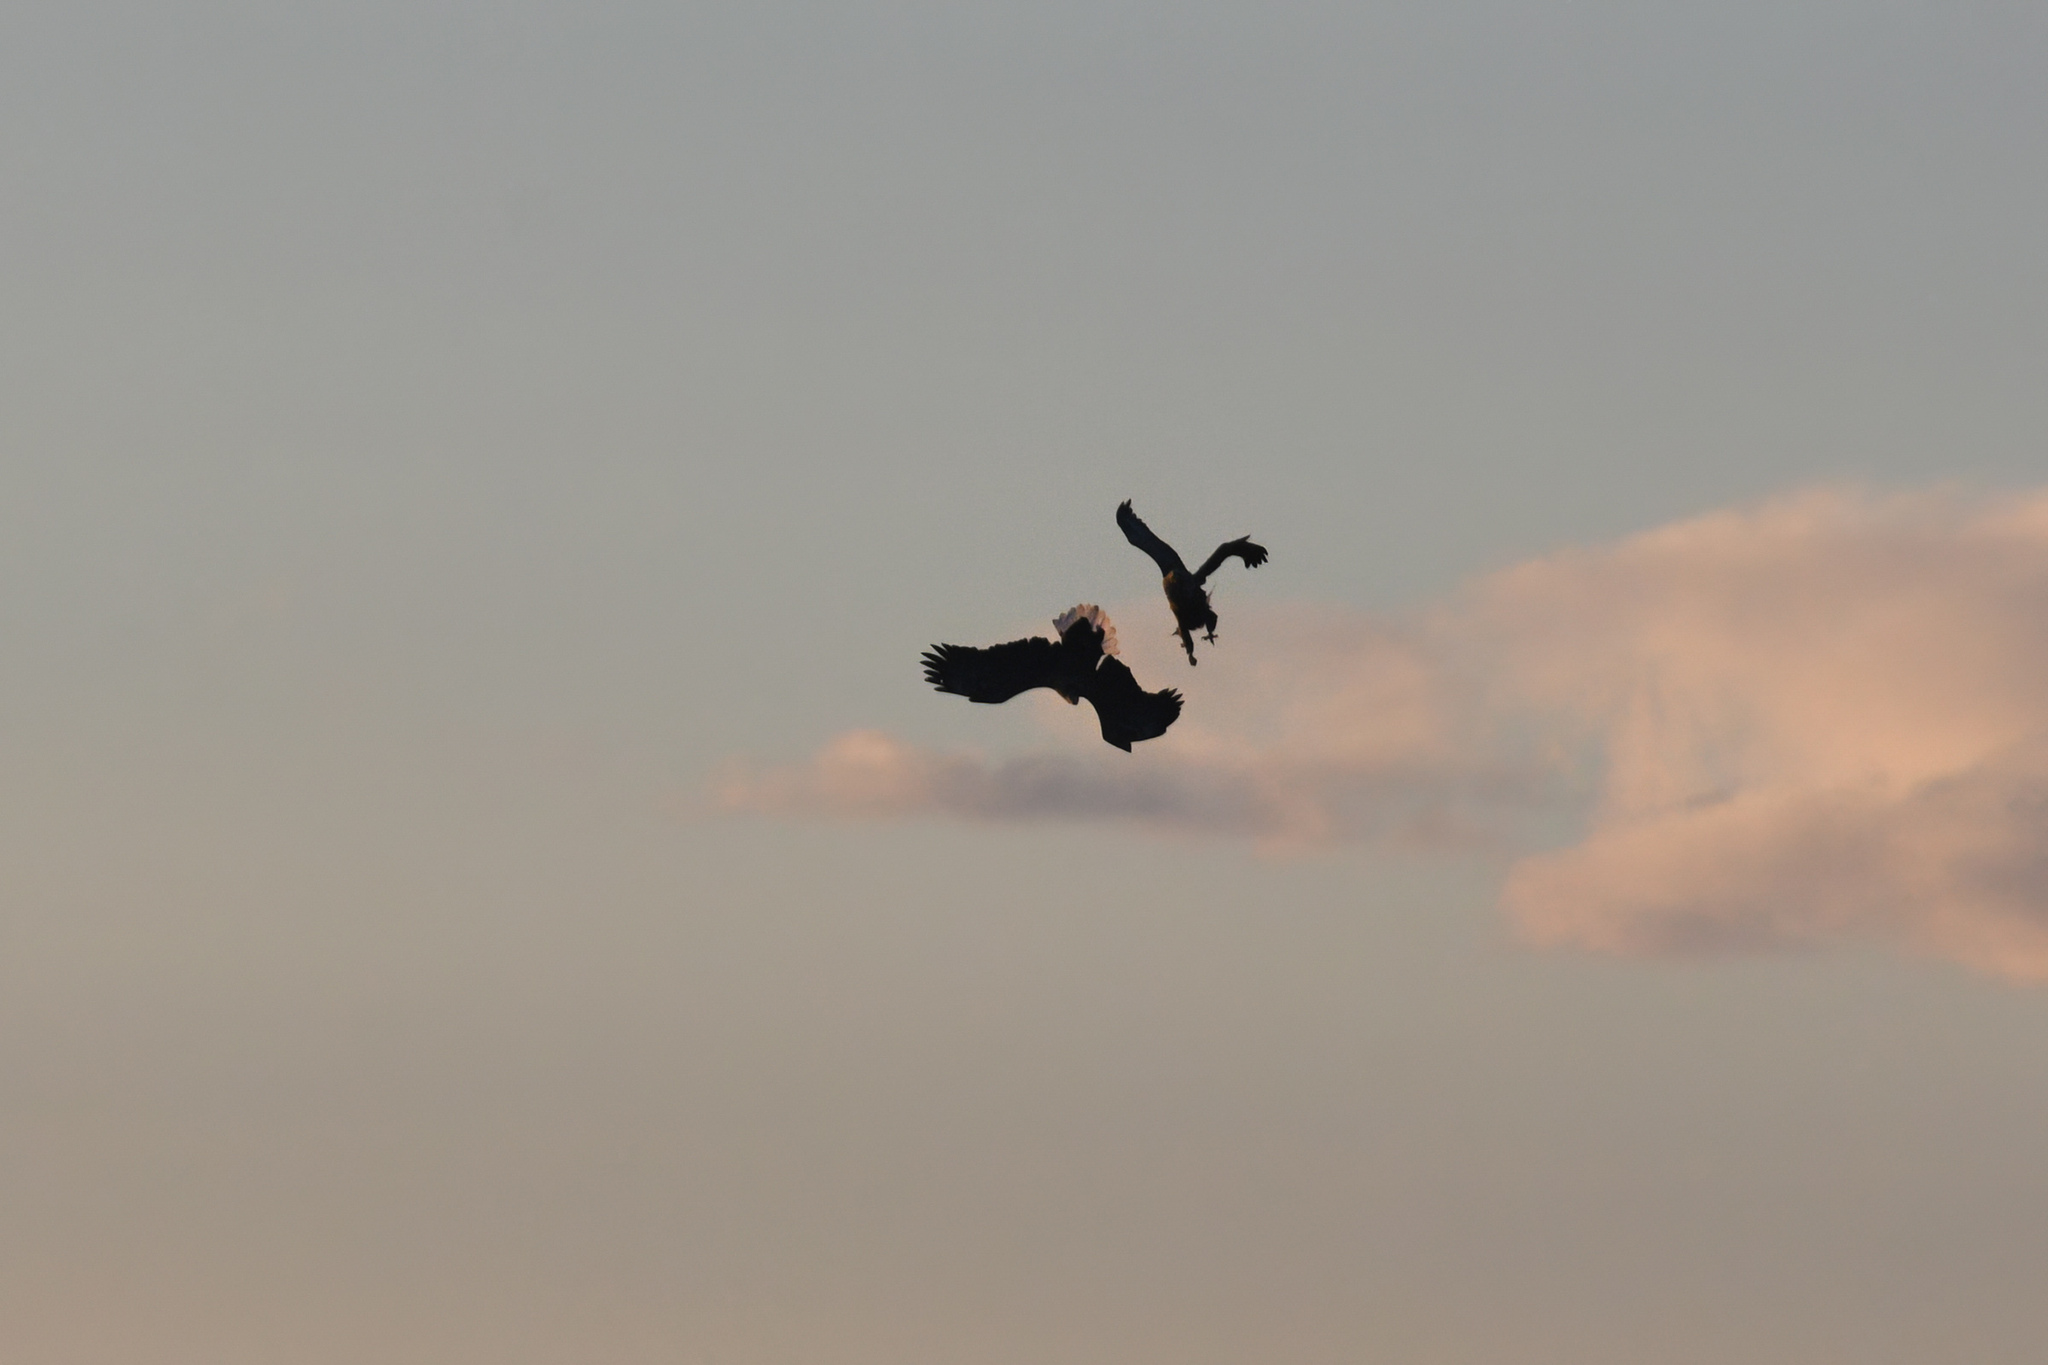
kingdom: Animalia
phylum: Chordata
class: Aves
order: Accipitriformes
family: Accipitridae
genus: Haliaeetus
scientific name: Haliaeetus albicilla
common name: White-tailed eagle
